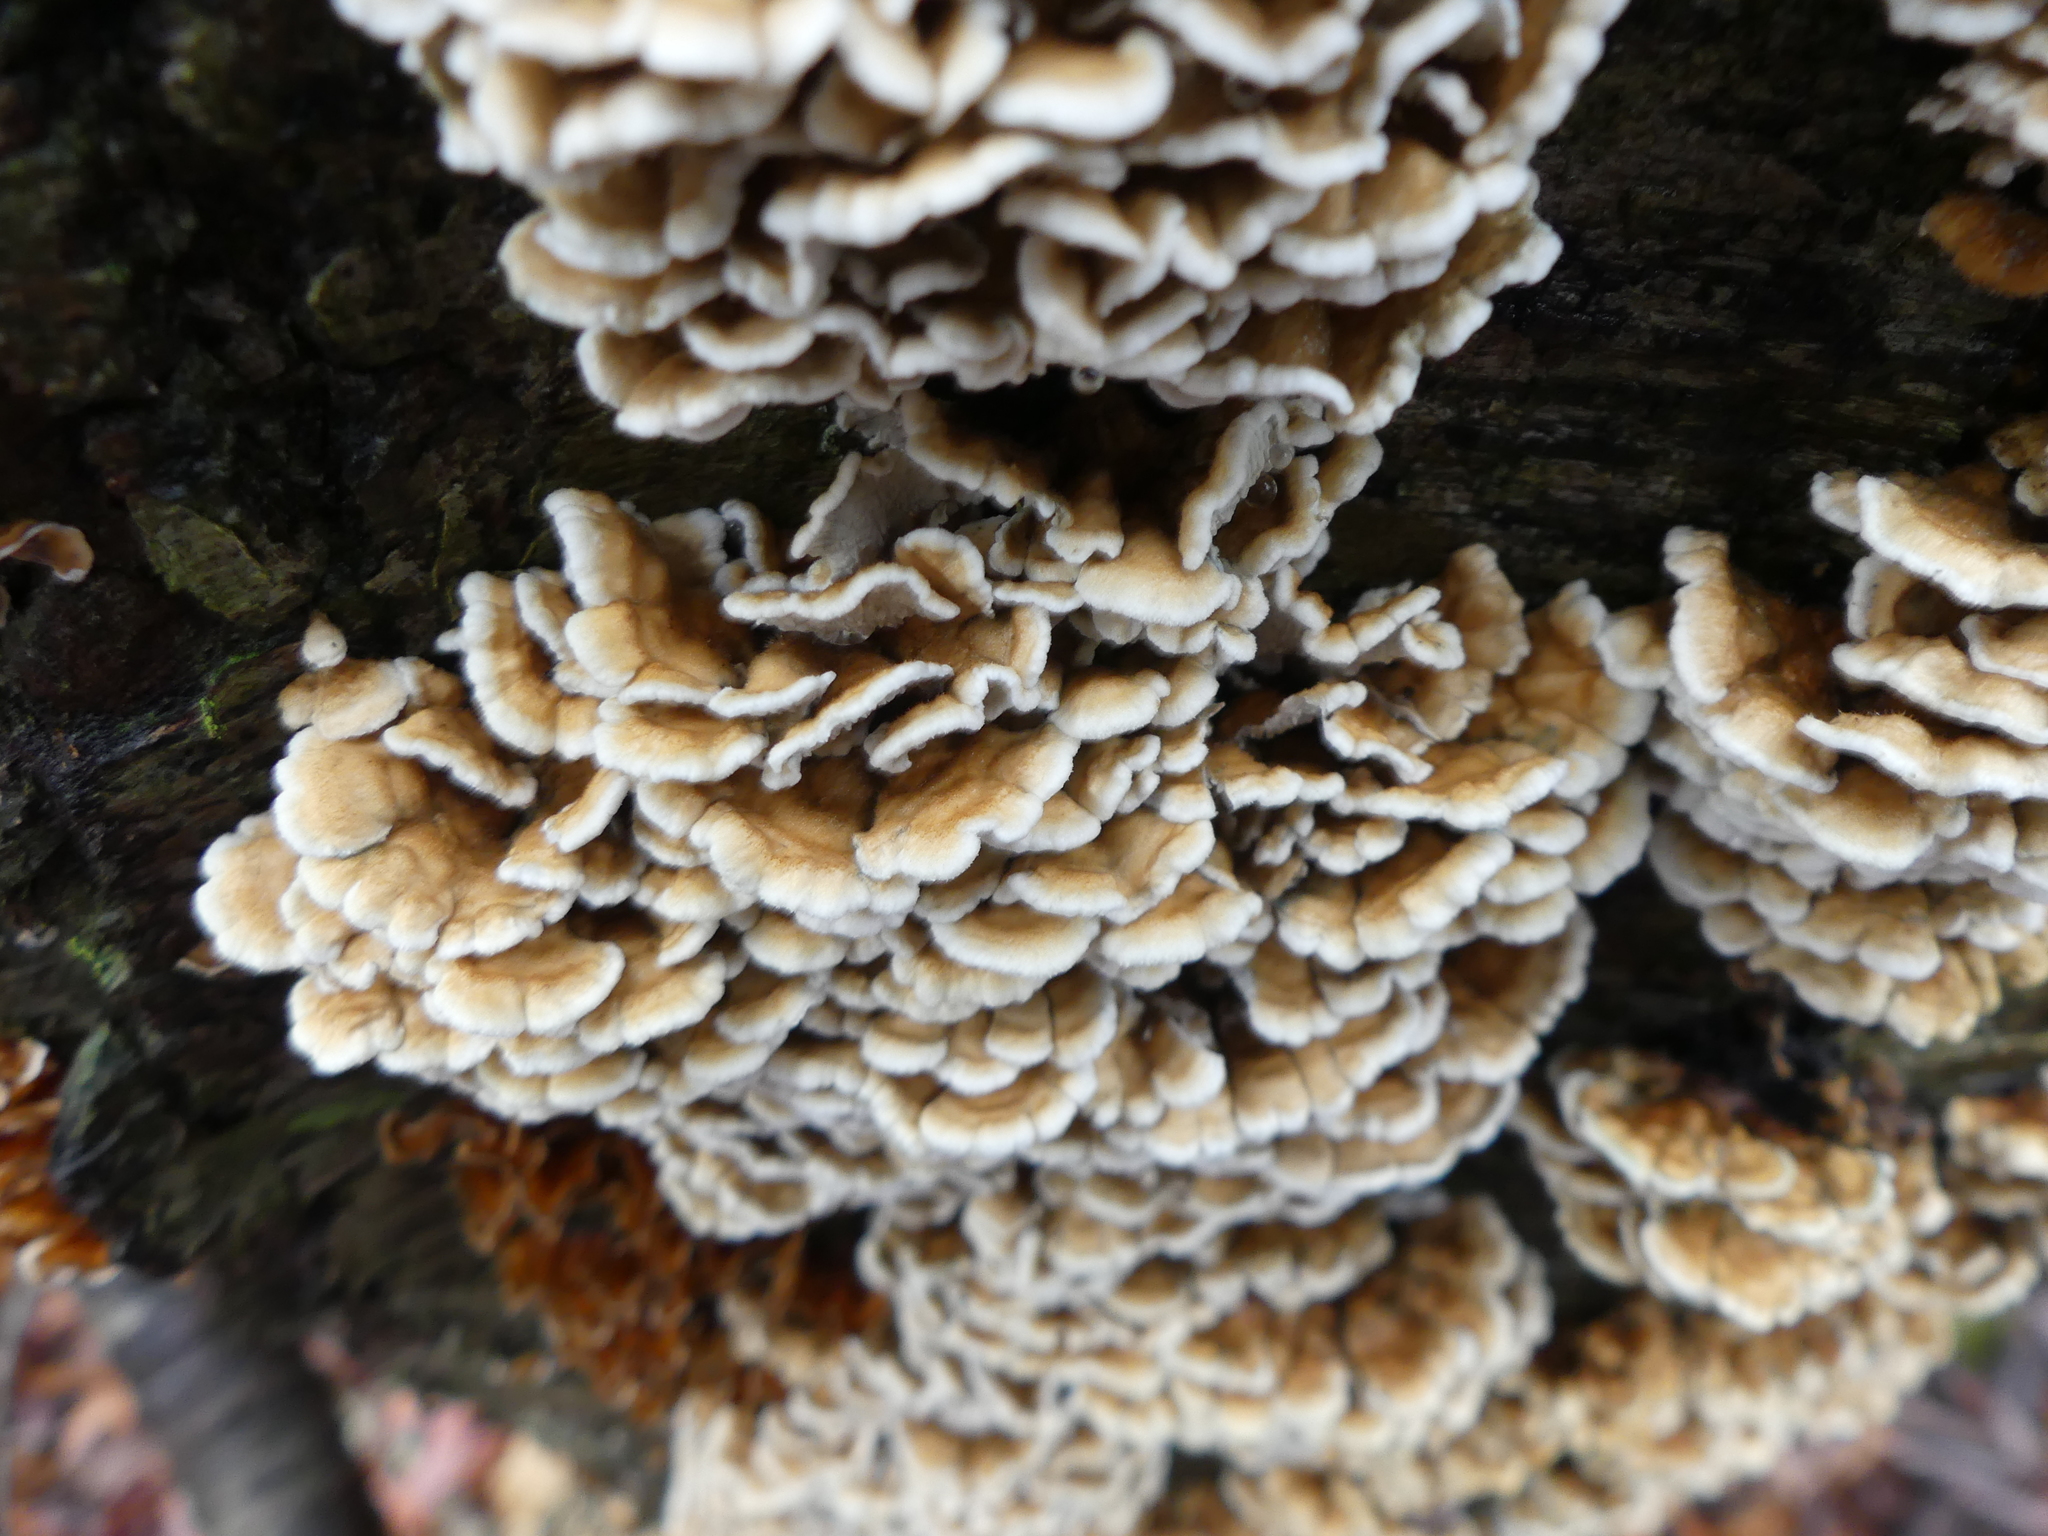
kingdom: Fungi
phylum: Basidiomycota
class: Agaricomycetes
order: Amylocorticiales
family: Amylocorticiaceae
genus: Plicaturopsis
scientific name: Plicaturopsis crispa
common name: Crimped gill
